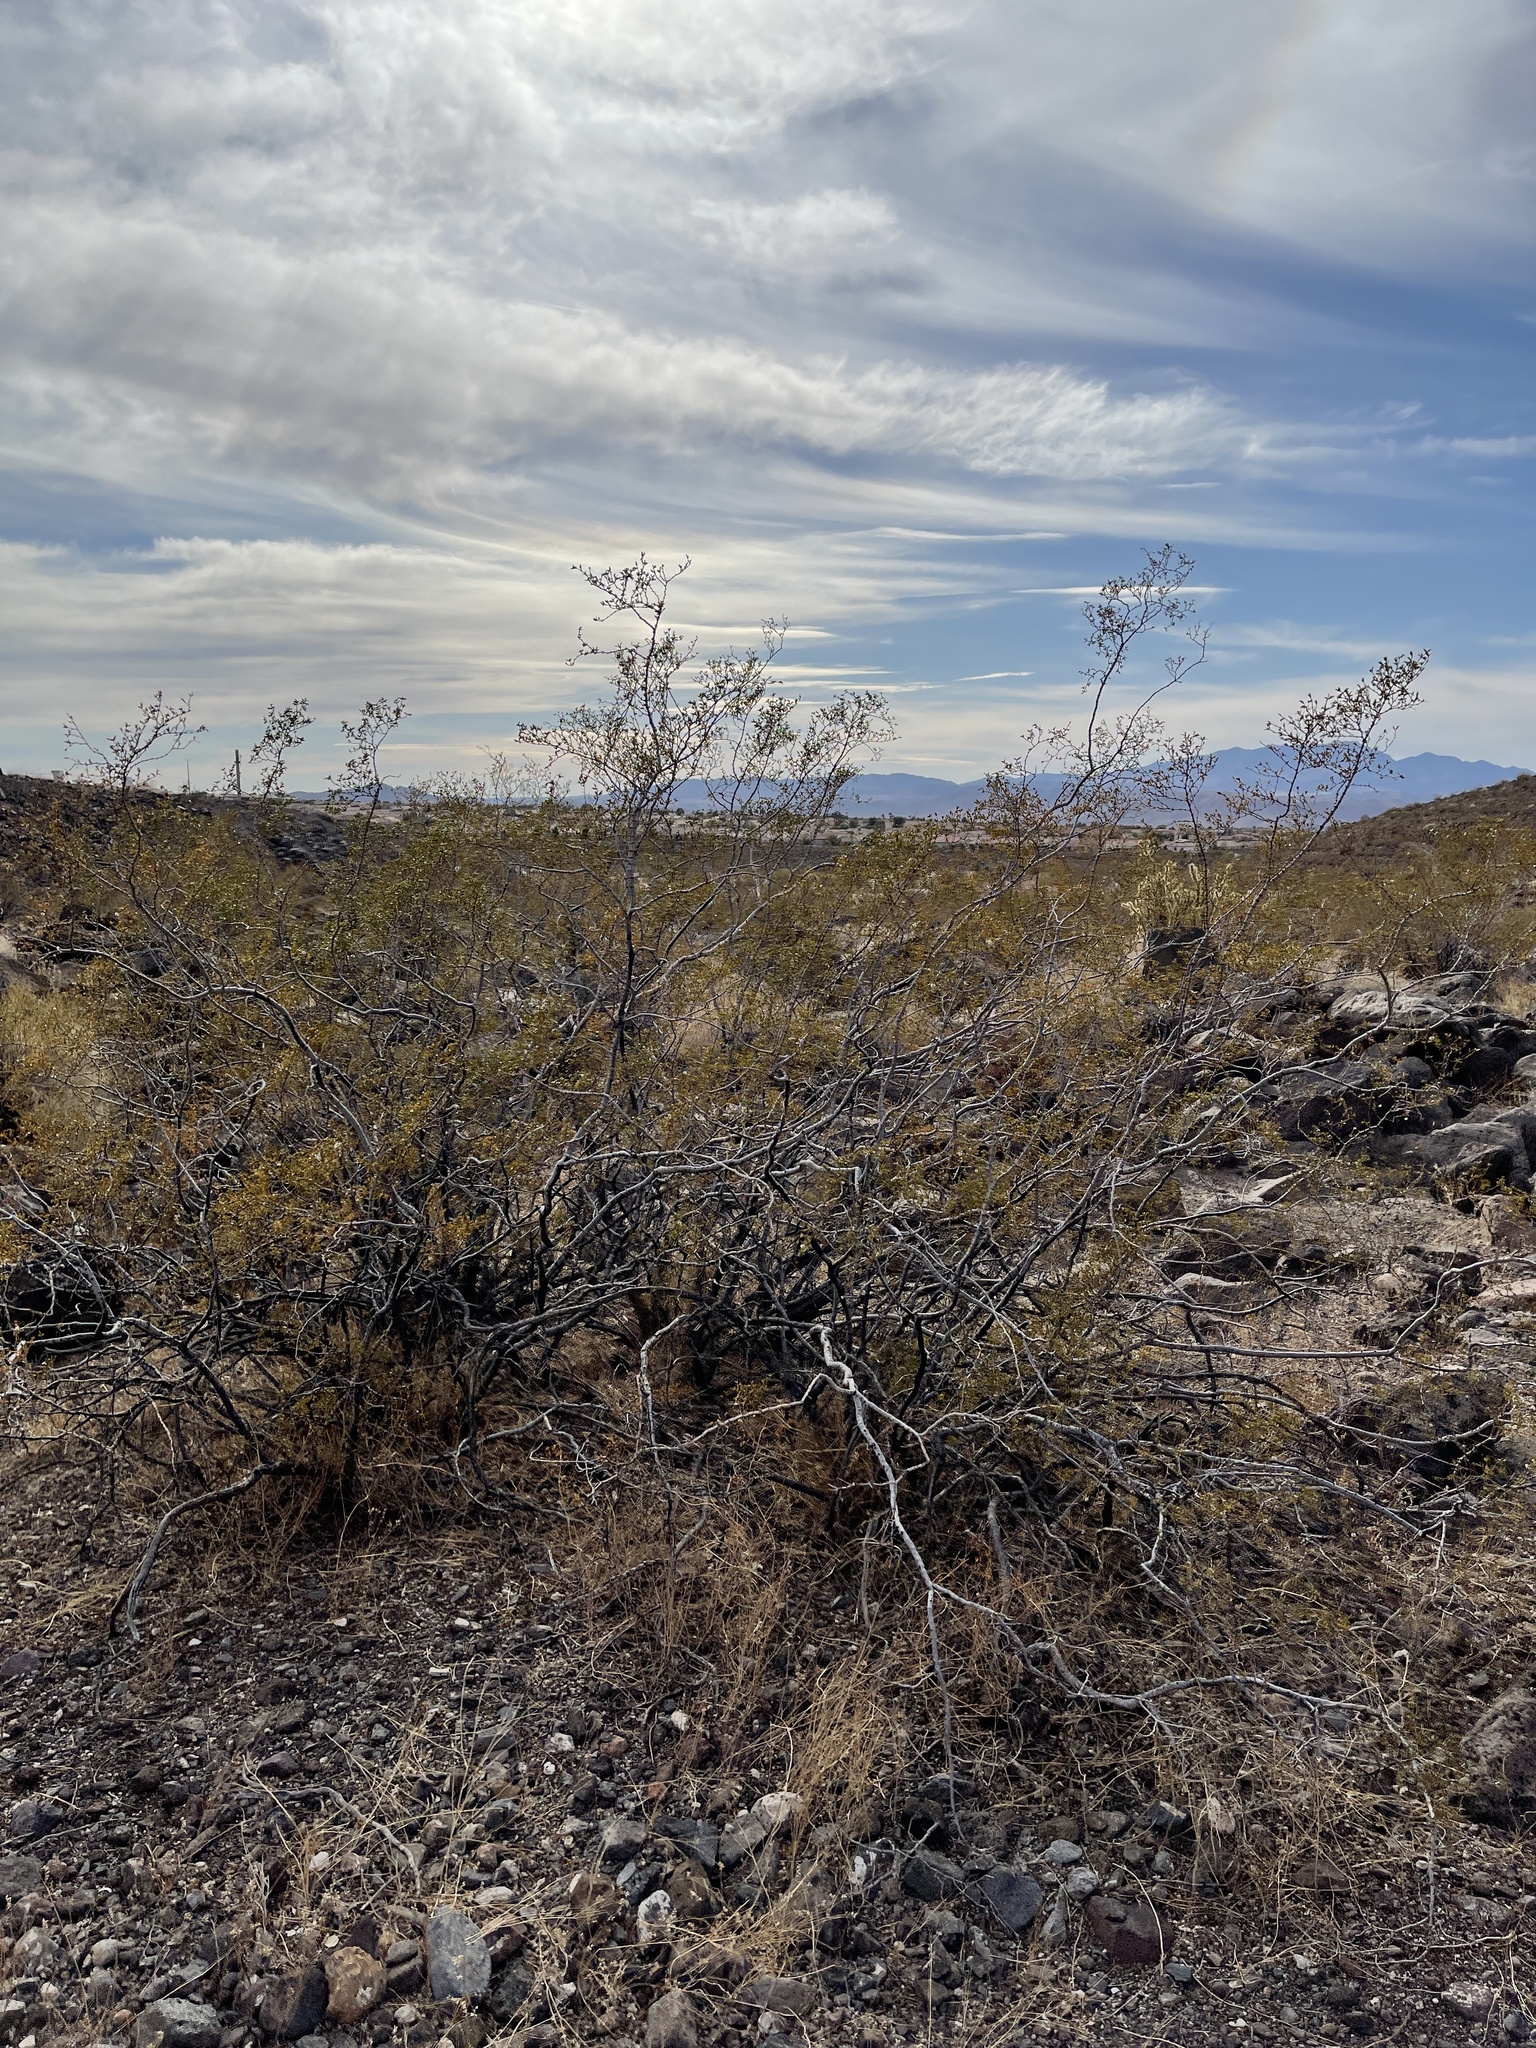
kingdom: Plantae
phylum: Tracheophyta
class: Magnoliopsida
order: Zygophyllales
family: Zygophyllaceae
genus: Larrea
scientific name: Larrea tridentata
